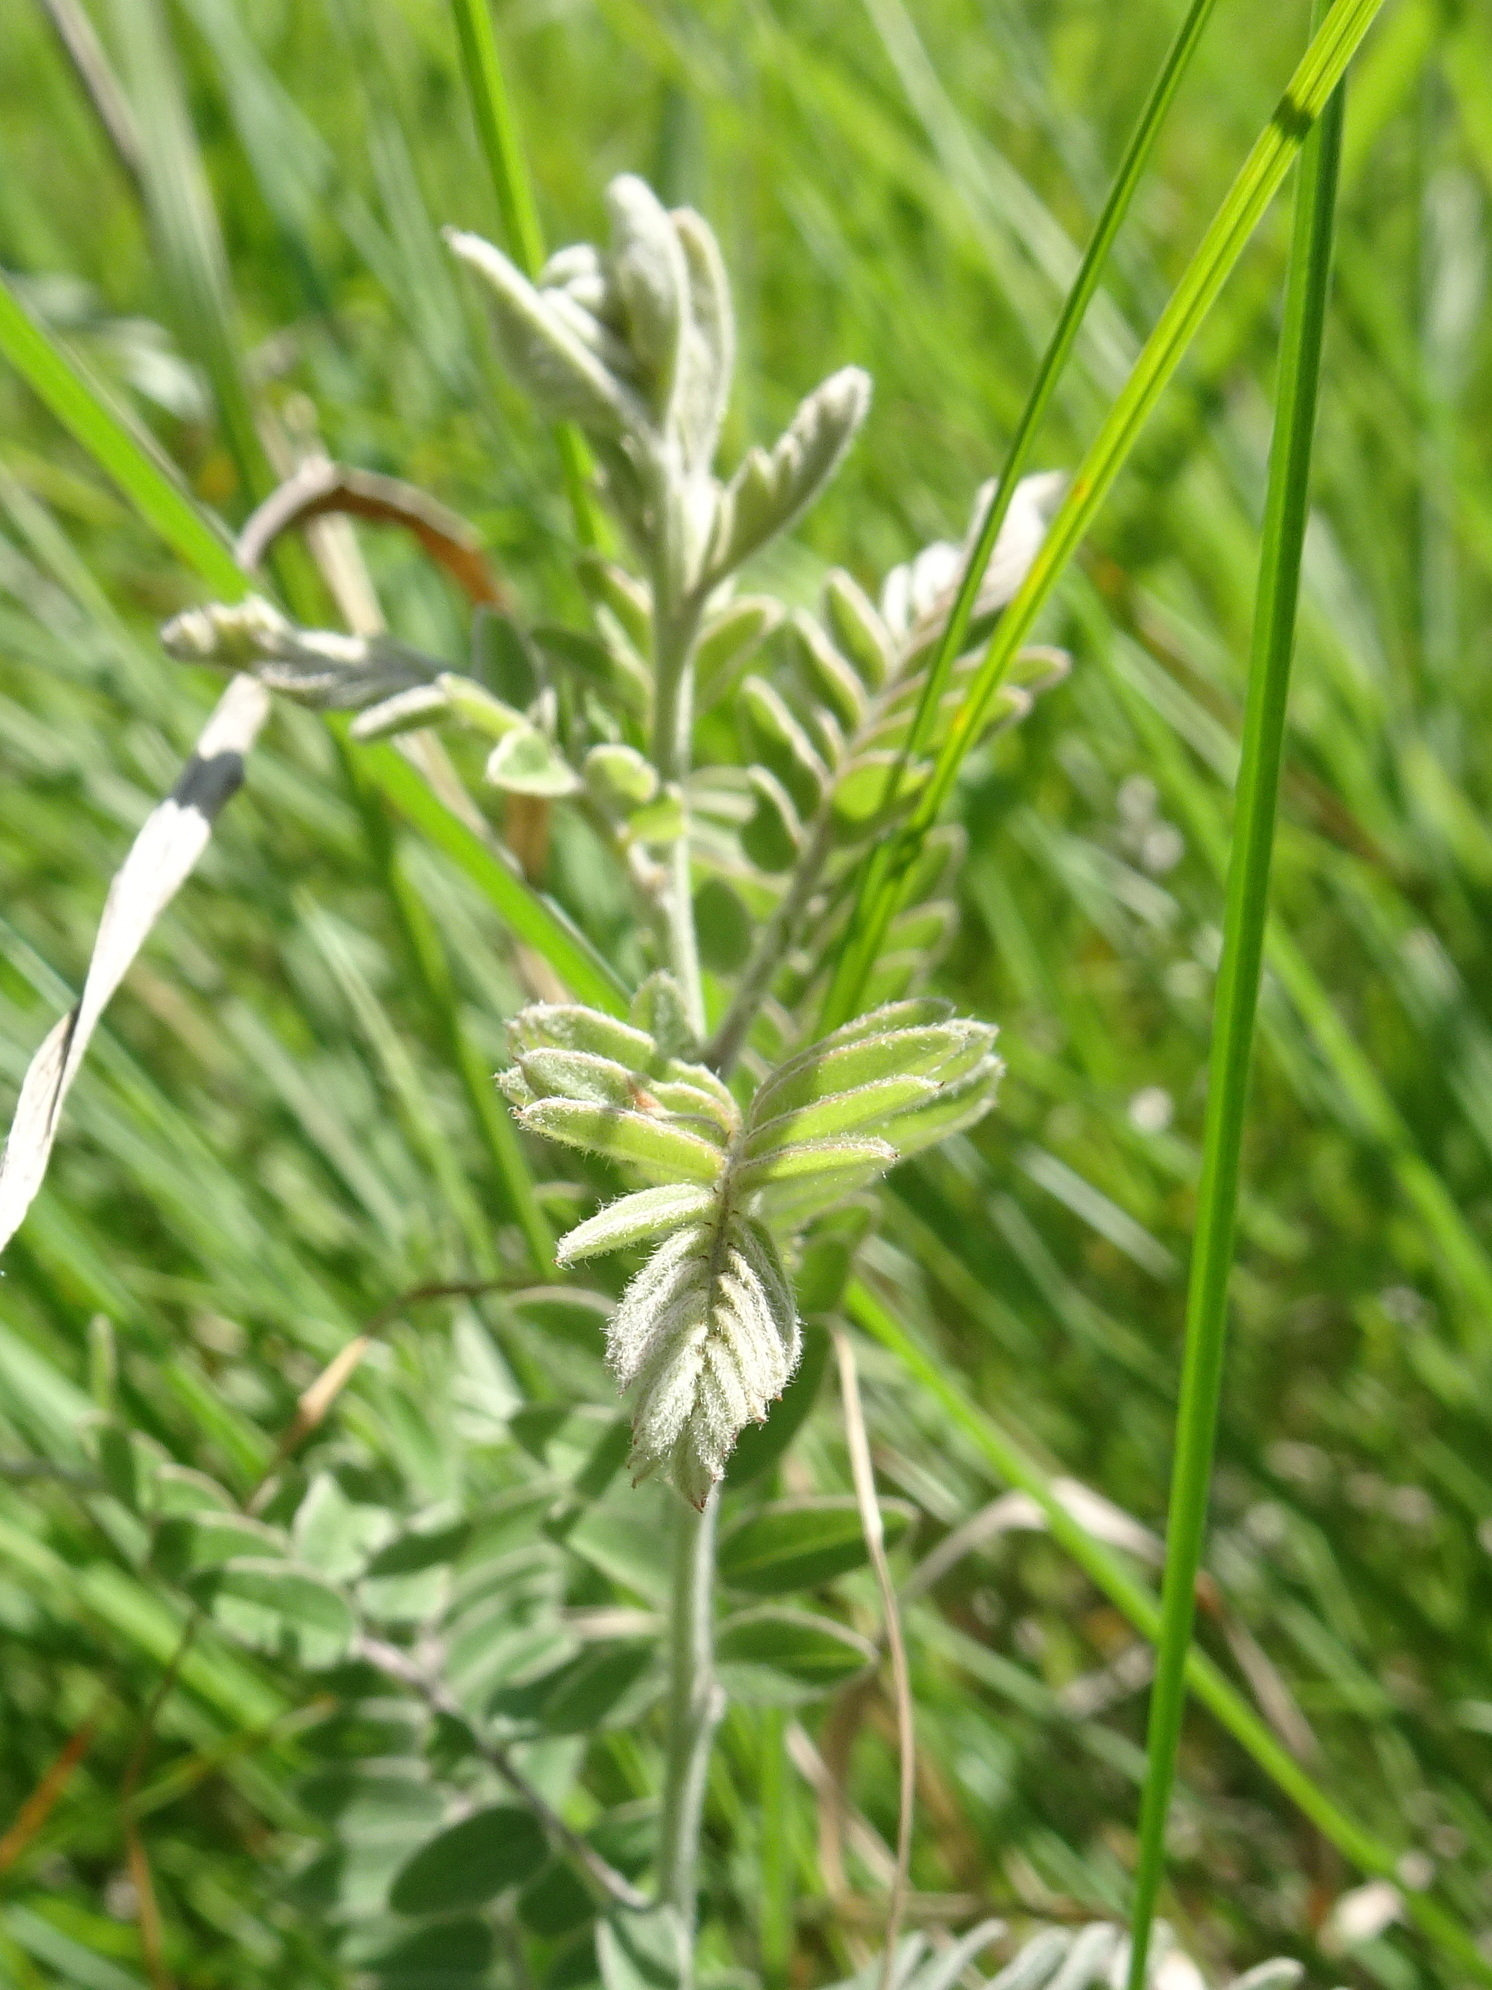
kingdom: Plantae
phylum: Tracheophyta
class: Magnoliopsida
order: Fabales
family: Fabaceae
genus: Amorpha
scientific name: Amorpha canescens
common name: Leadplant
